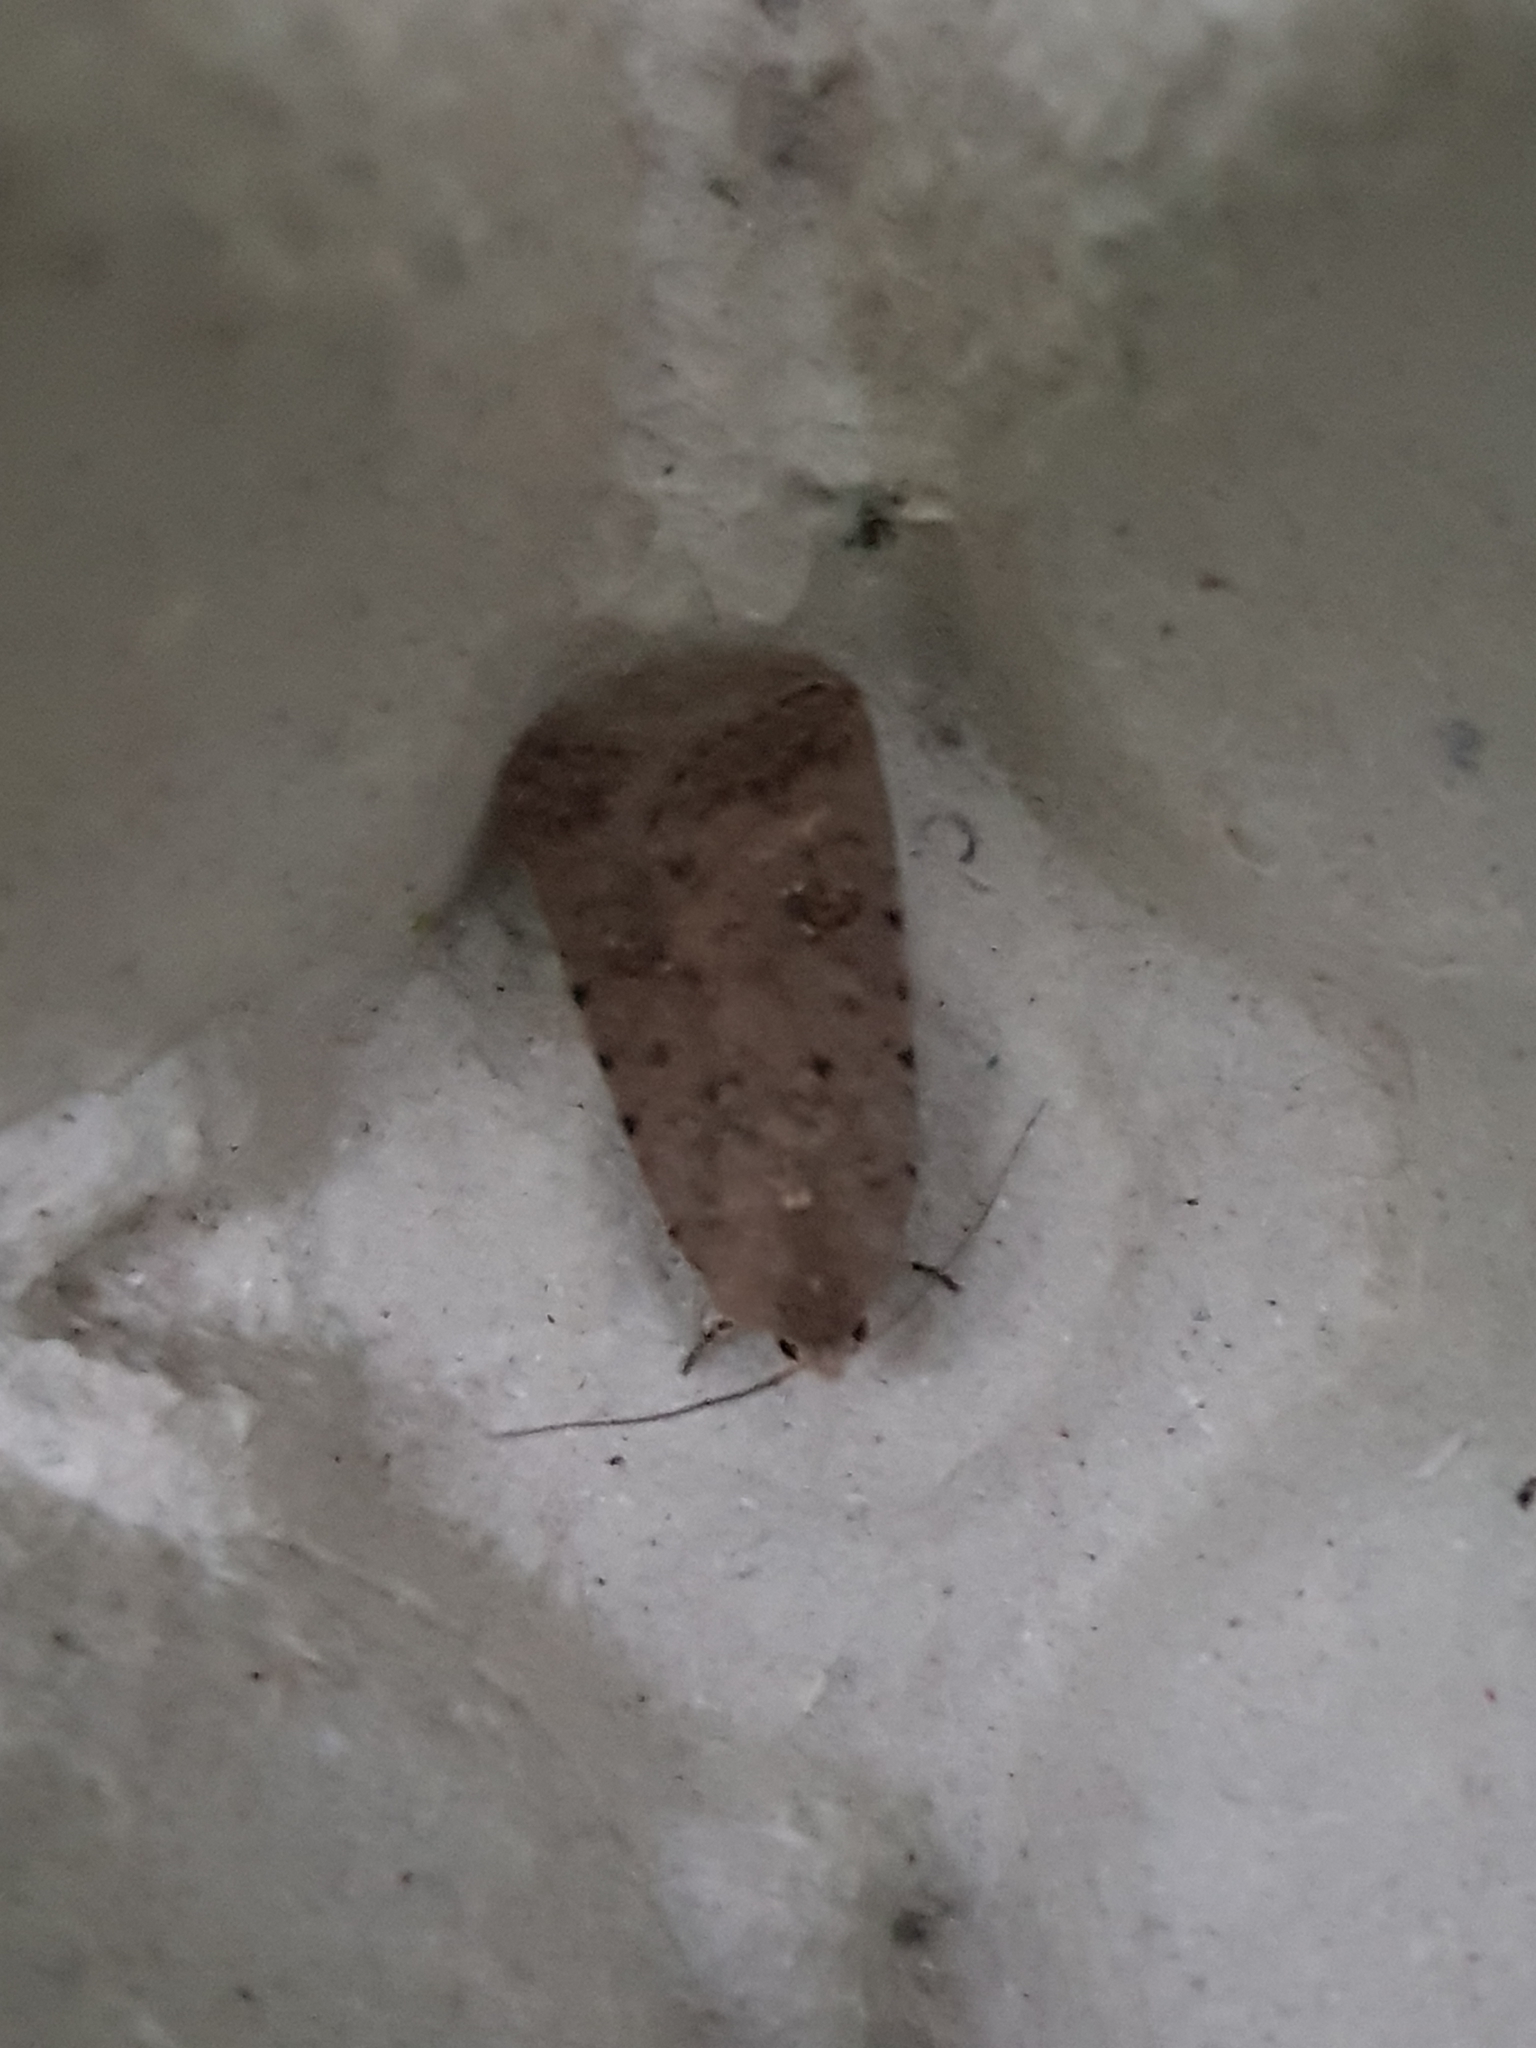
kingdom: Animalia
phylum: Arthropoda
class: Insecta
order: Lepidoptera
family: Noctuidae
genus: Caradrina
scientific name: Caradrina clavipalpis
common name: Pale mottled willow
